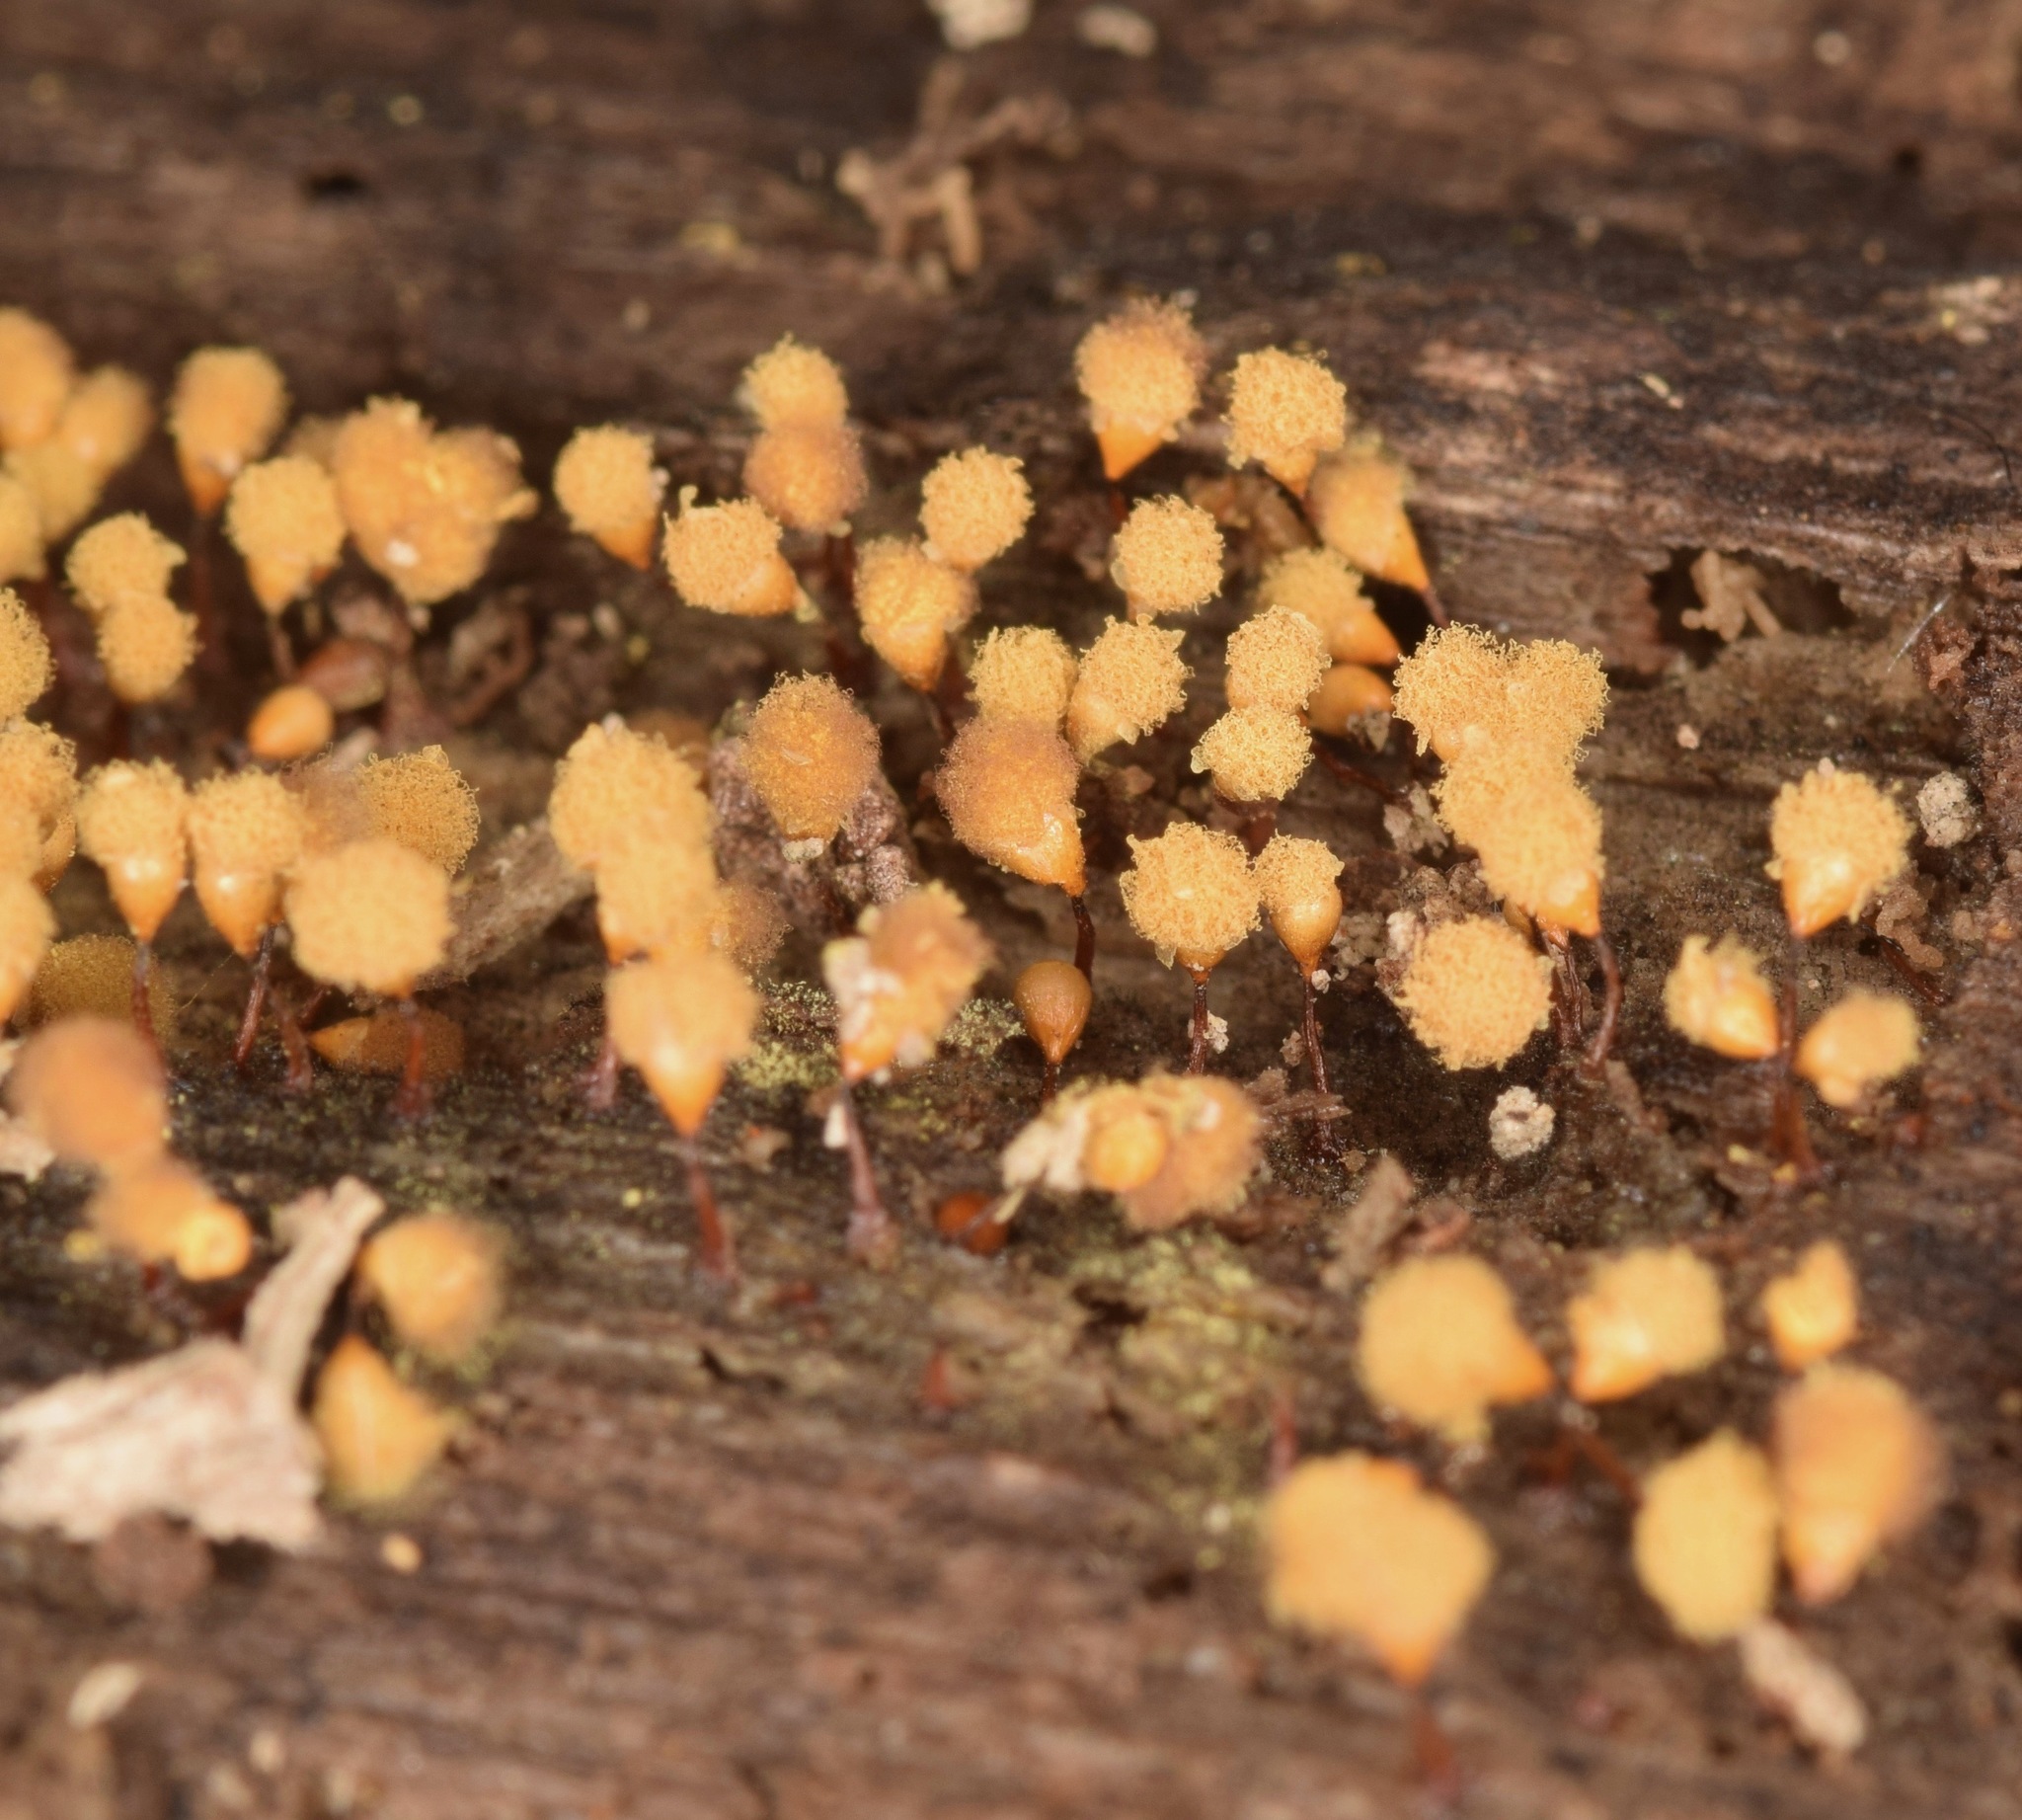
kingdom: Protozoa
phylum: Mycetozoa
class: Myxomycetes
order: Trichiales
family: Arcyriaceae
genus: Hemitrichia
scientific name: Hemitrichia calyculata
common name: Push pin slime mold
